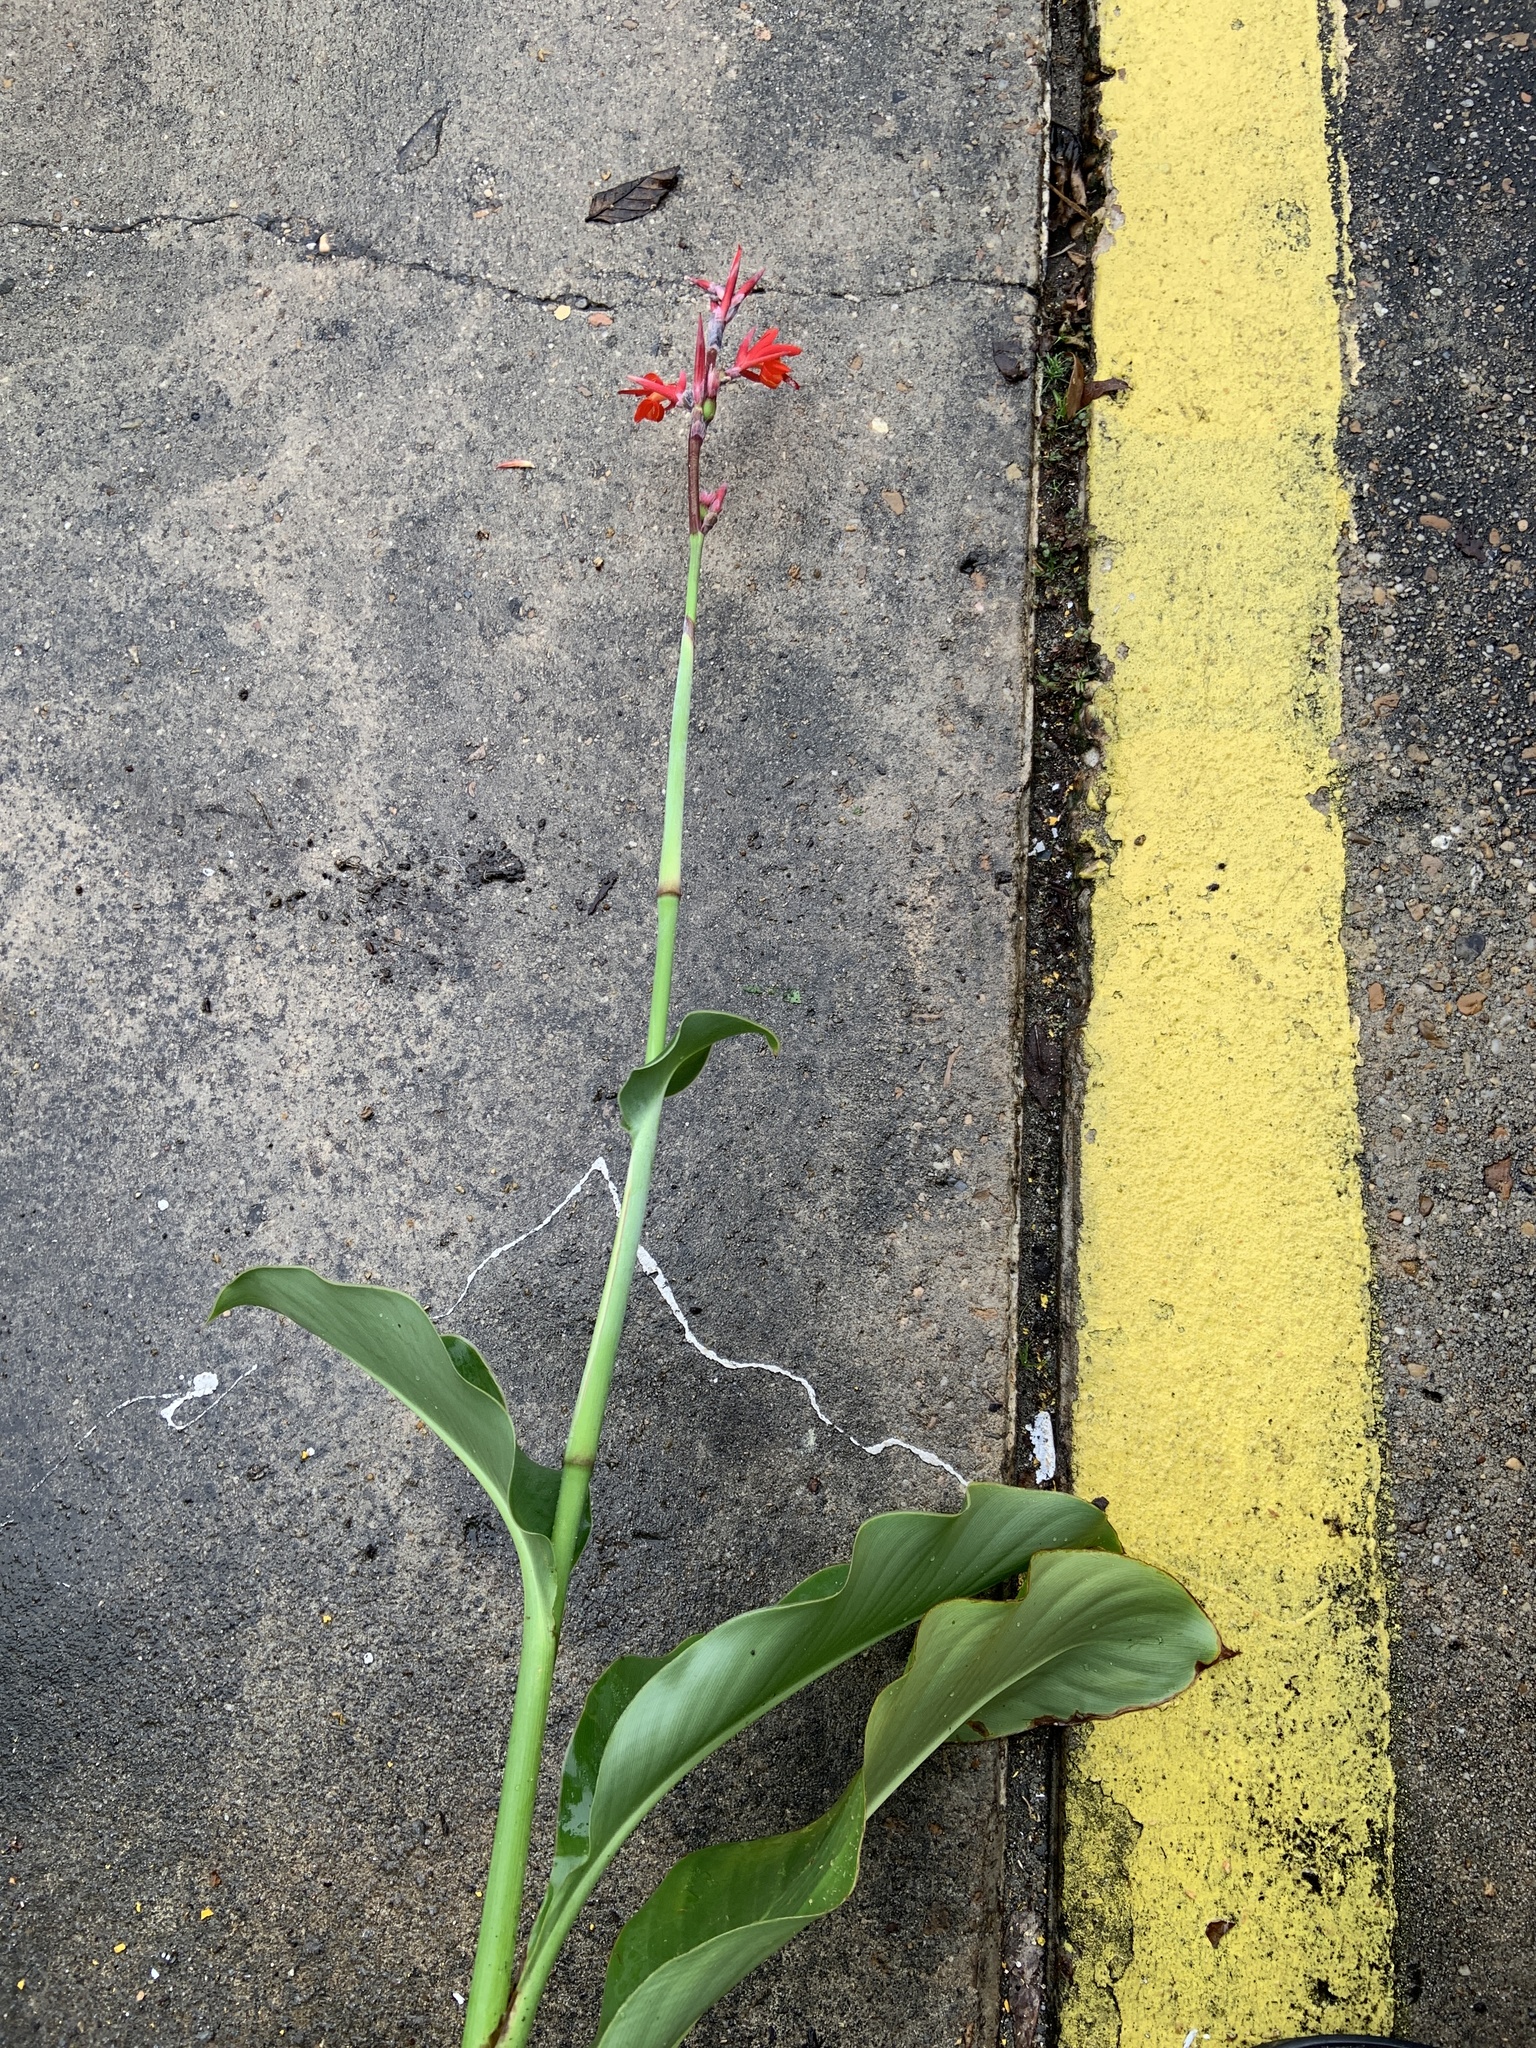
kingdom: Plantae
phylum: Tracheophyta
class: Liliopsida
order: Zingiberales
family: Cannaceae
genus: Canna
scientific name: Canna indica
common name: Indian shot
